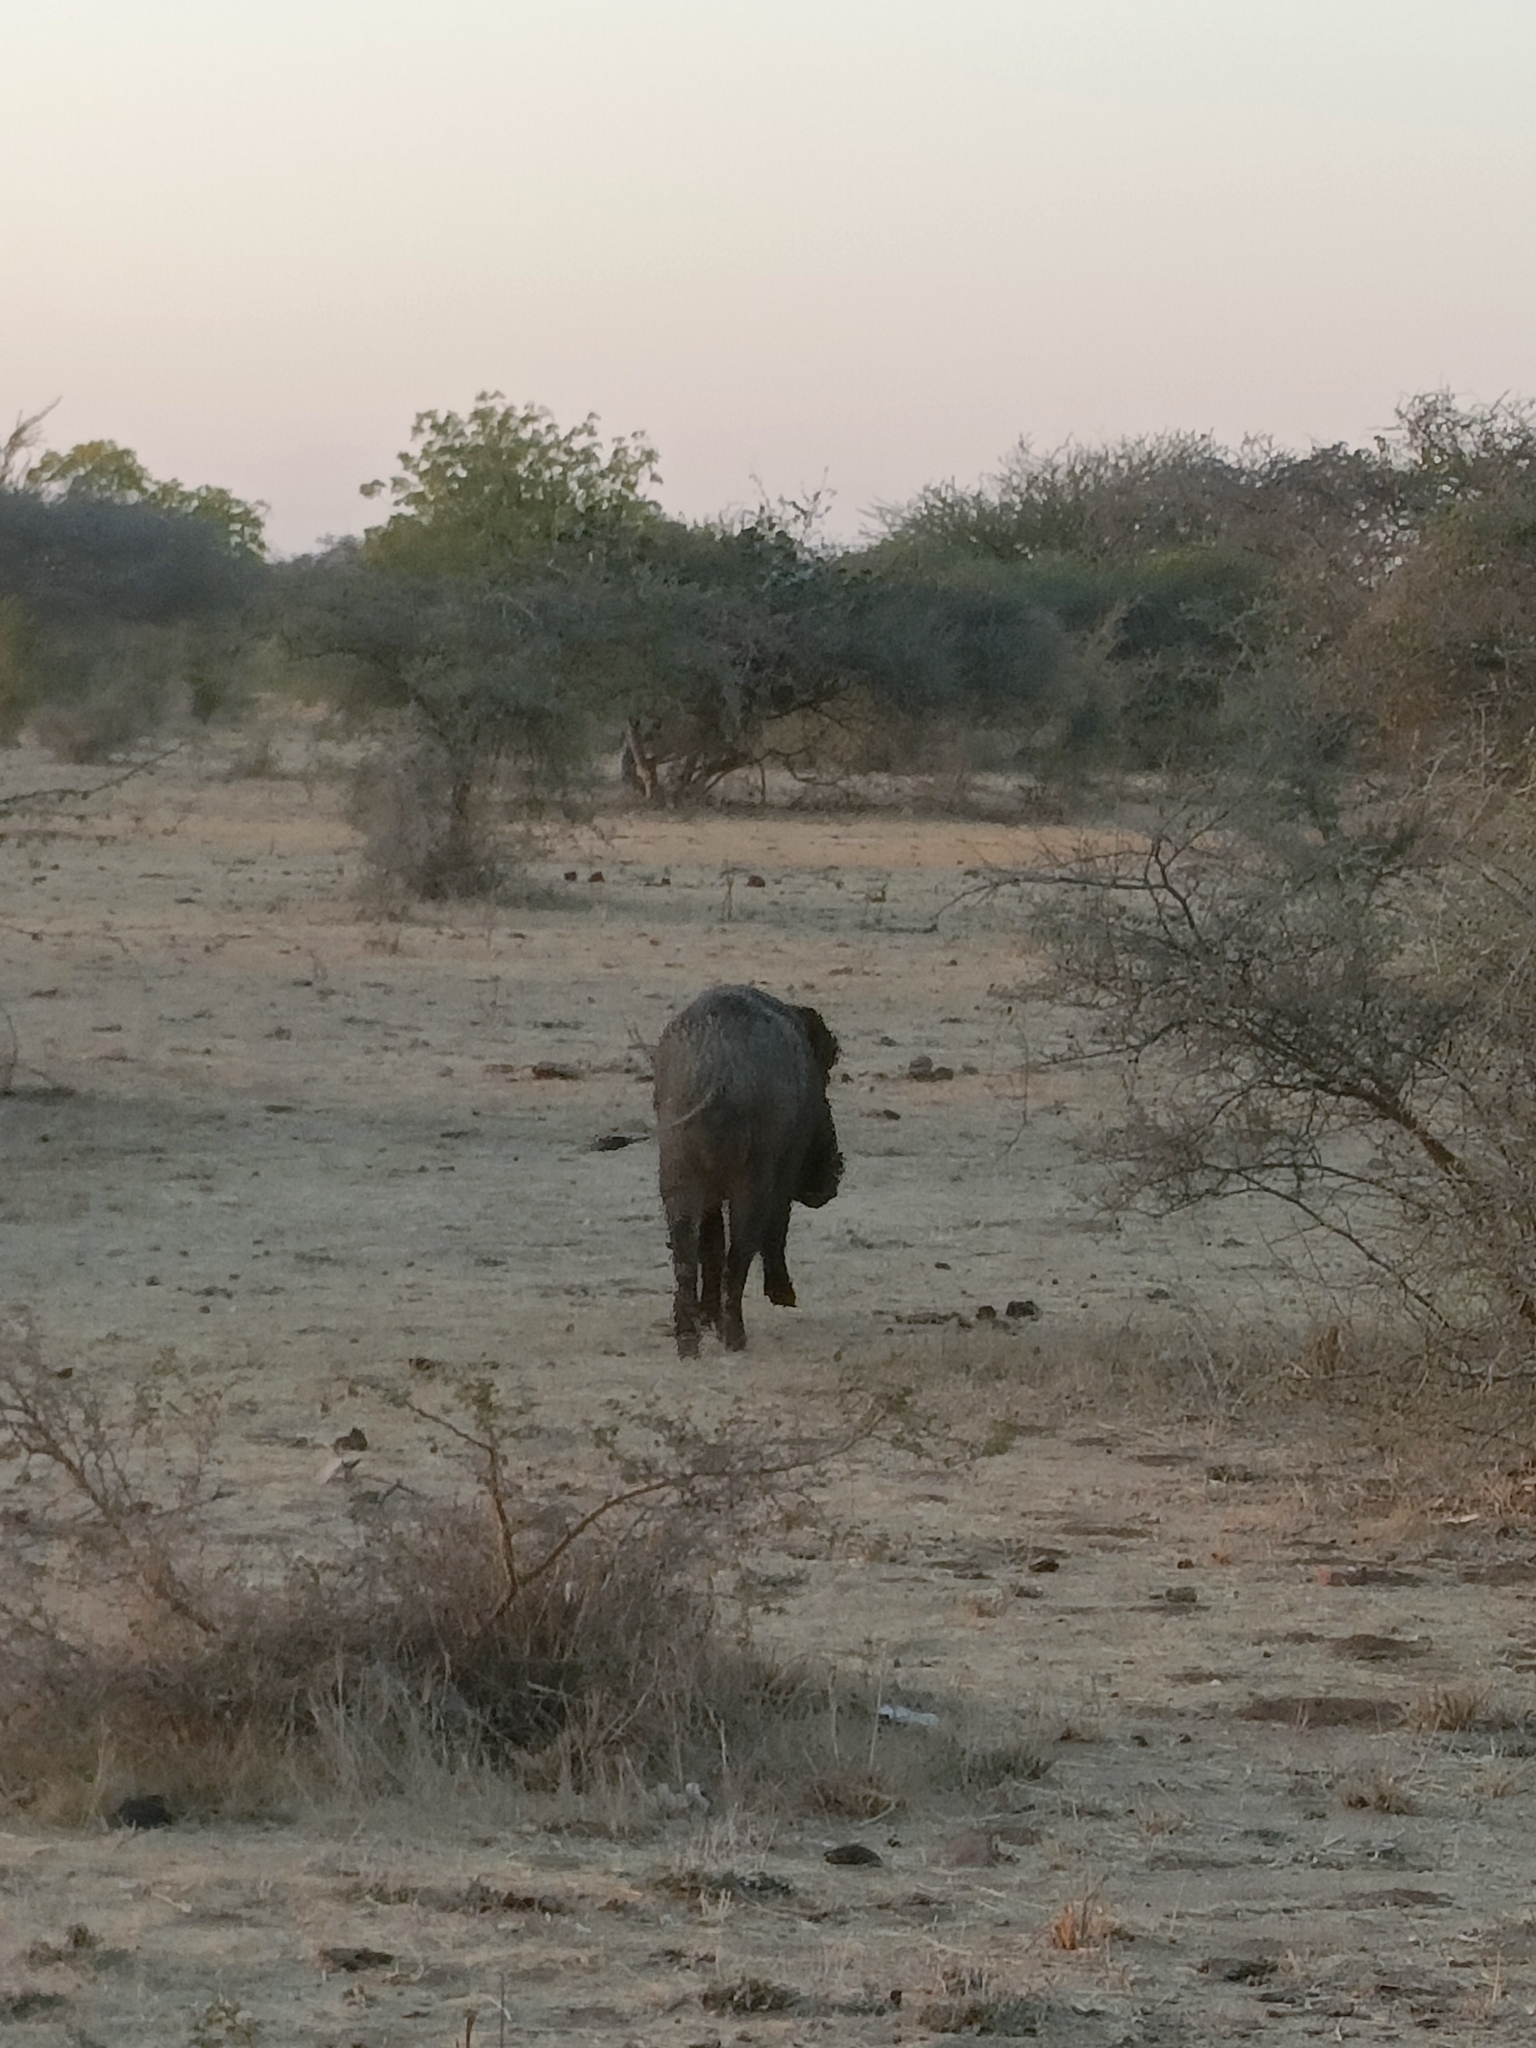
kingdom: Animalia
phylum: Chordata
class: Mammalia
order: Artiodactyla
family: Suidae
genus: Sus
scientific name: Sus scrofa
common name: Wild boar
